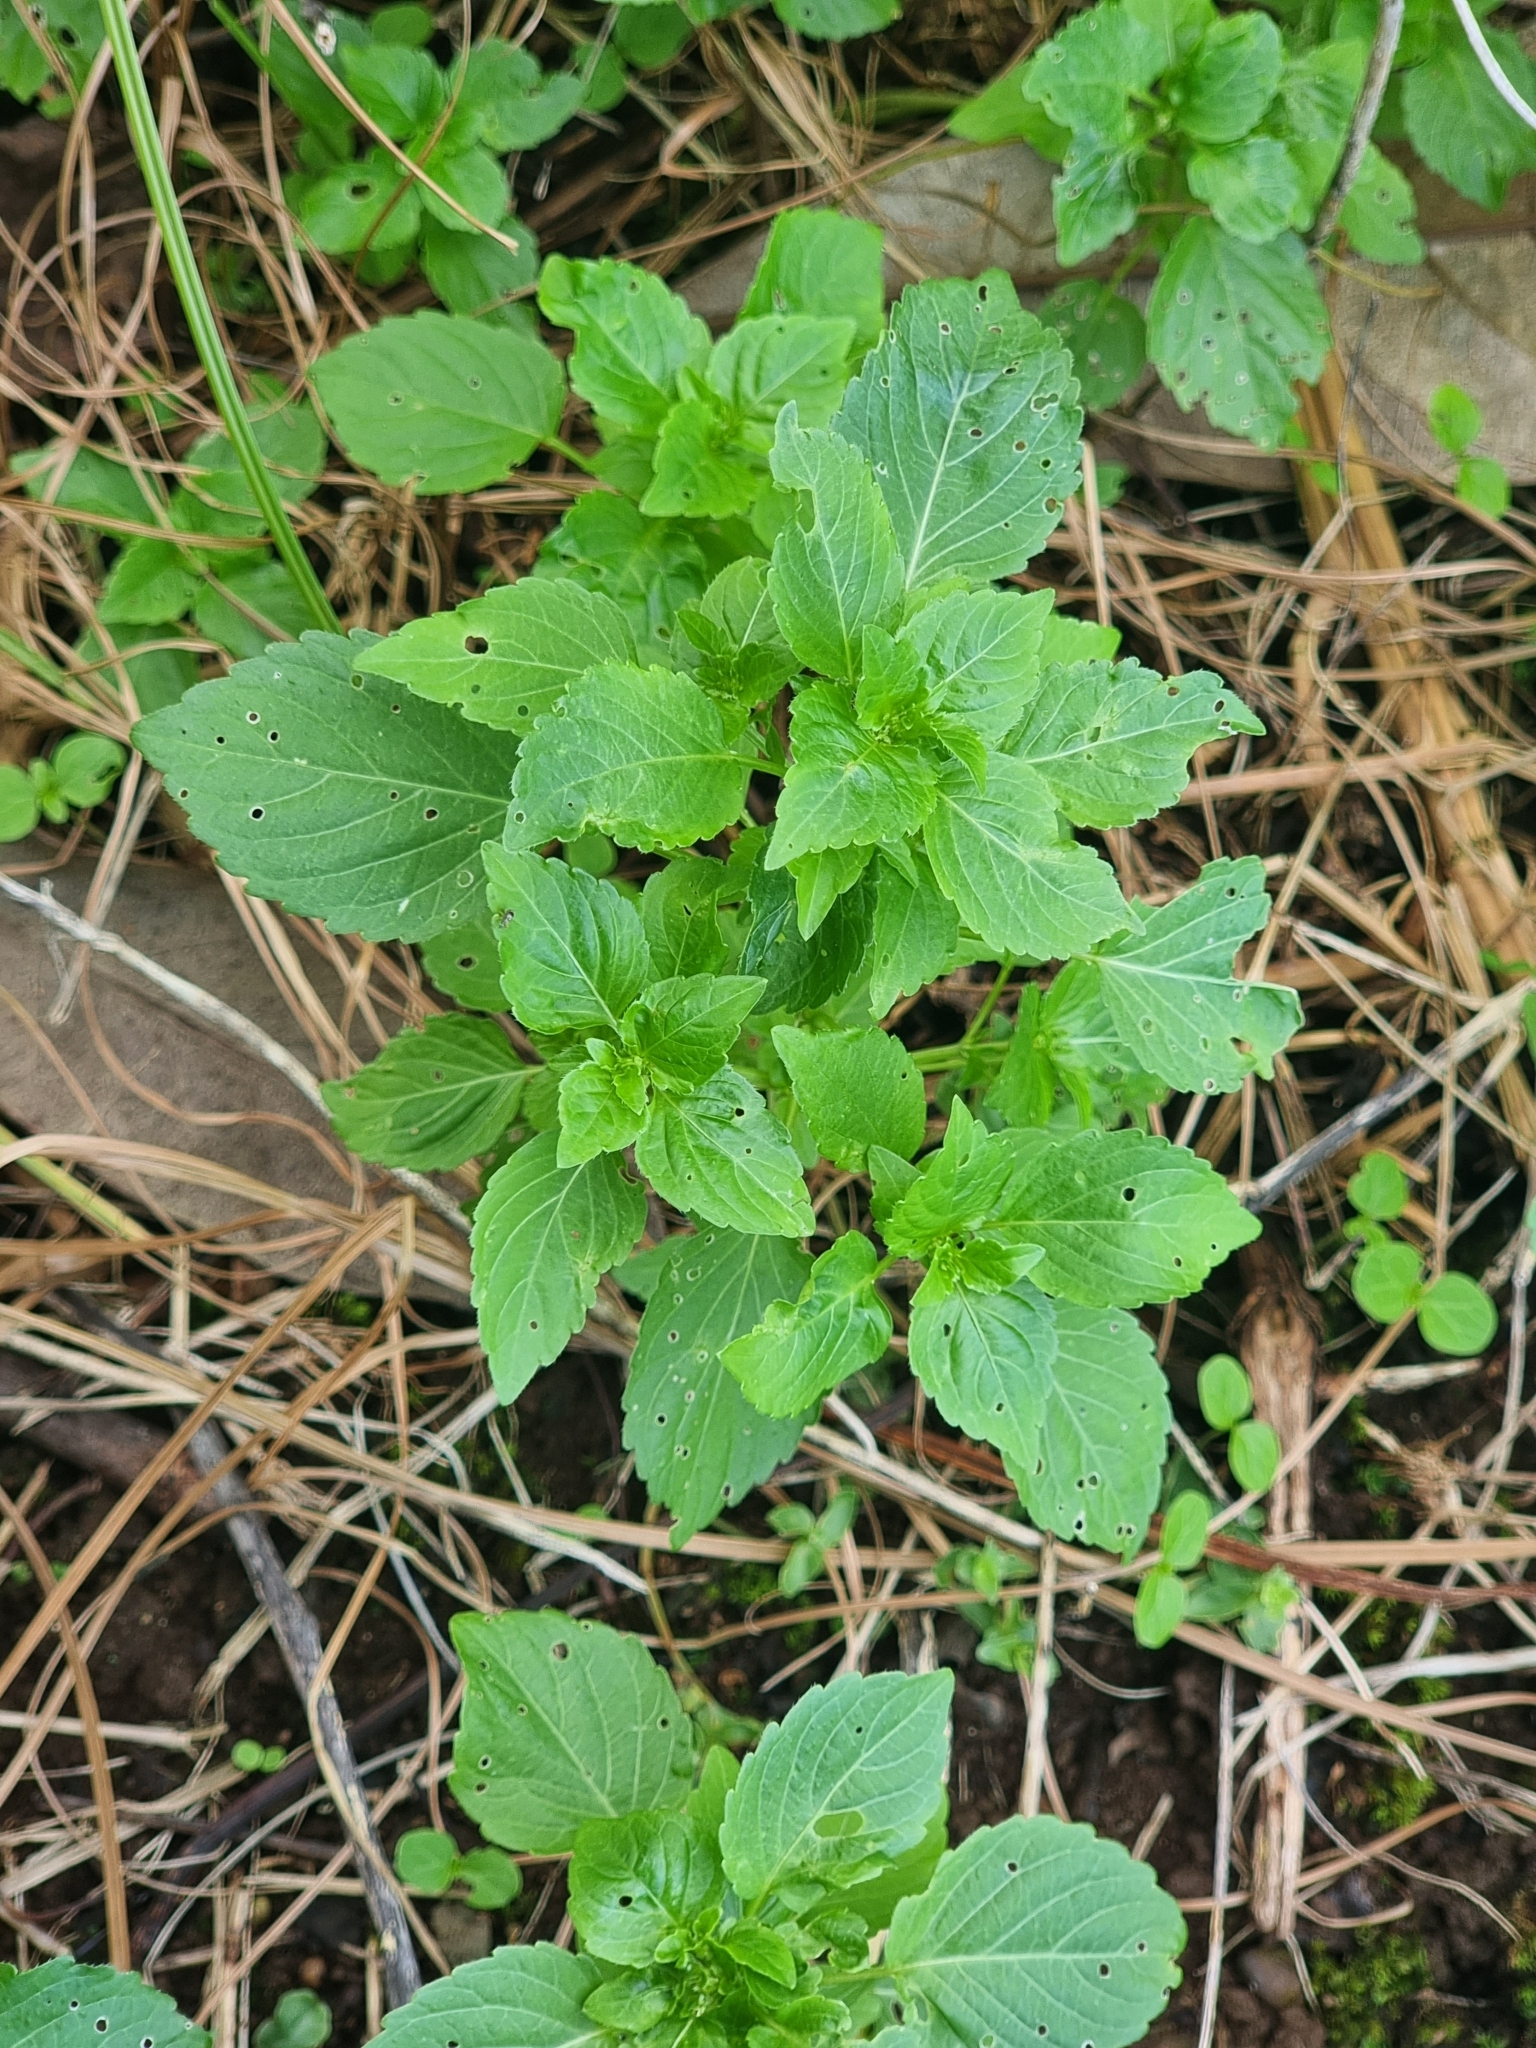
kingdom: Plantae
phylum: Tracheophyta
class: Magnoliopsida
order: Malpighiales
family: Euphorbiaceae
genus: Mercurialis
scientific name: Mercurialis annua
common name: Annual mercury
